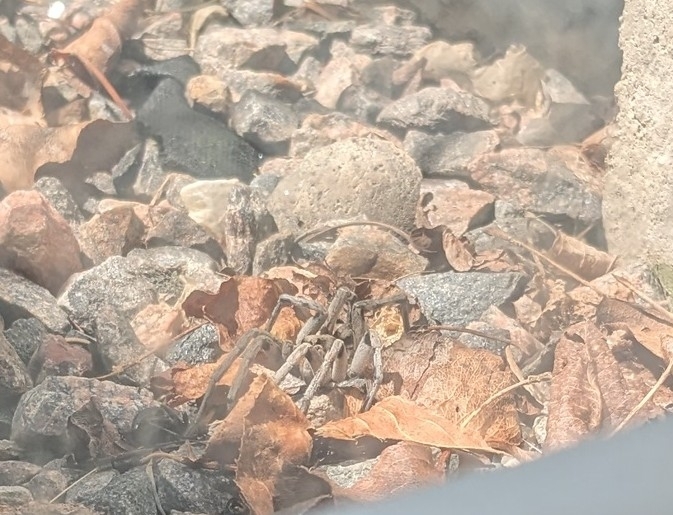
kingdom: Animalia
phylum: Arthropoda
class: Arachnida
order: Araneae
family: Lycosidae
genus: Hogna
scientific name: Hogna carolinensis
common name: Carolina wolf spider
